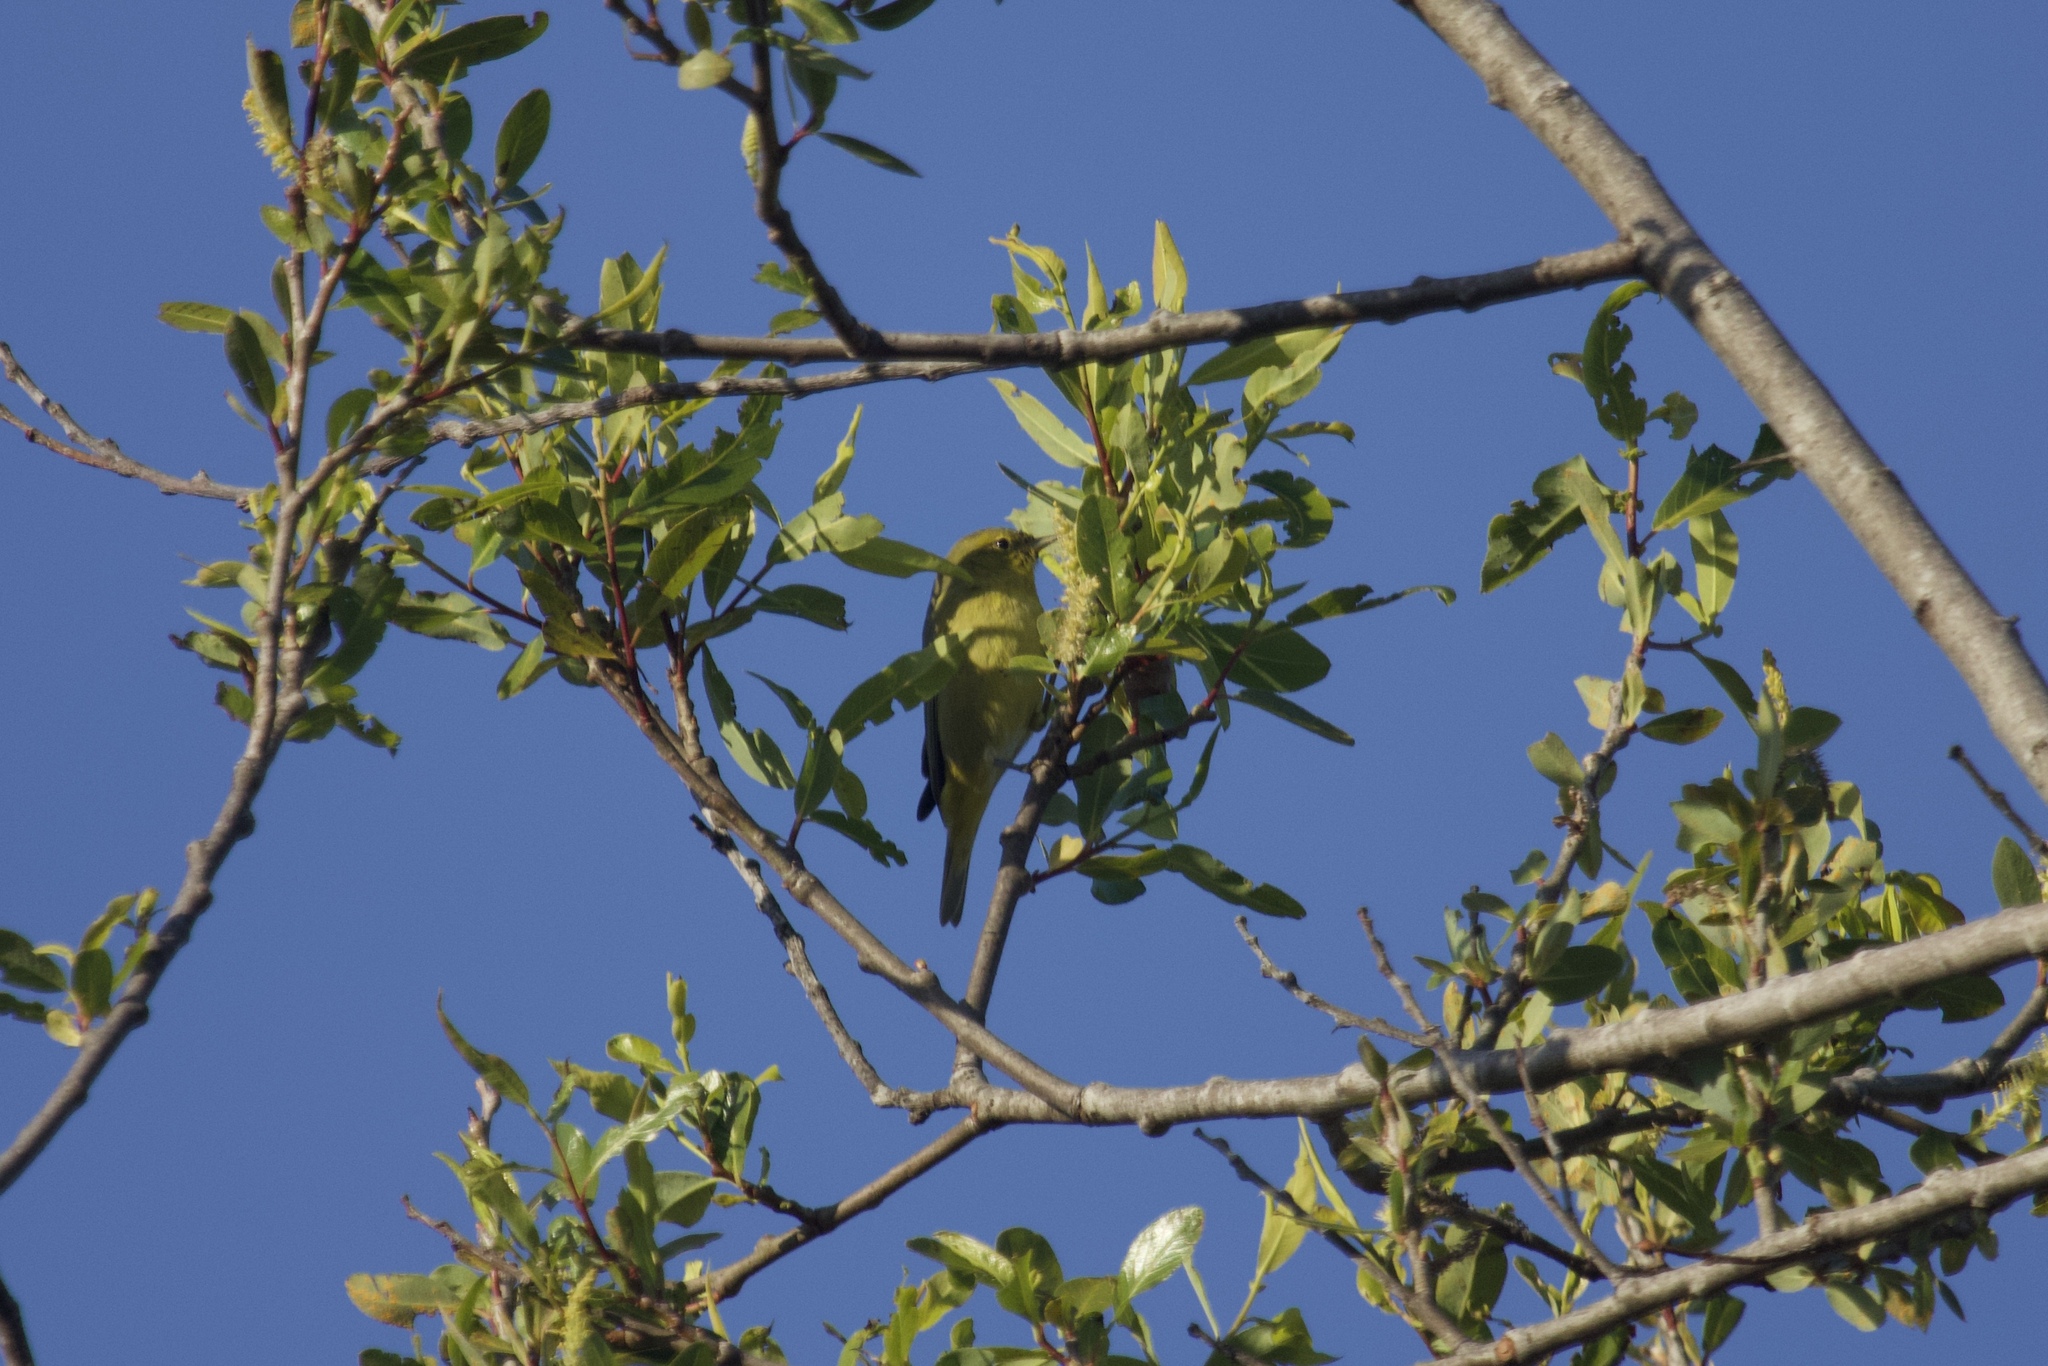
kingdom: Animalia
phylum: Chordata
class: Aves
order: Passeriformes
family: Parulidae
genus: Leiothlypis
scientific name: Leiothlypis celata
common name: Orange-crowned warbler
